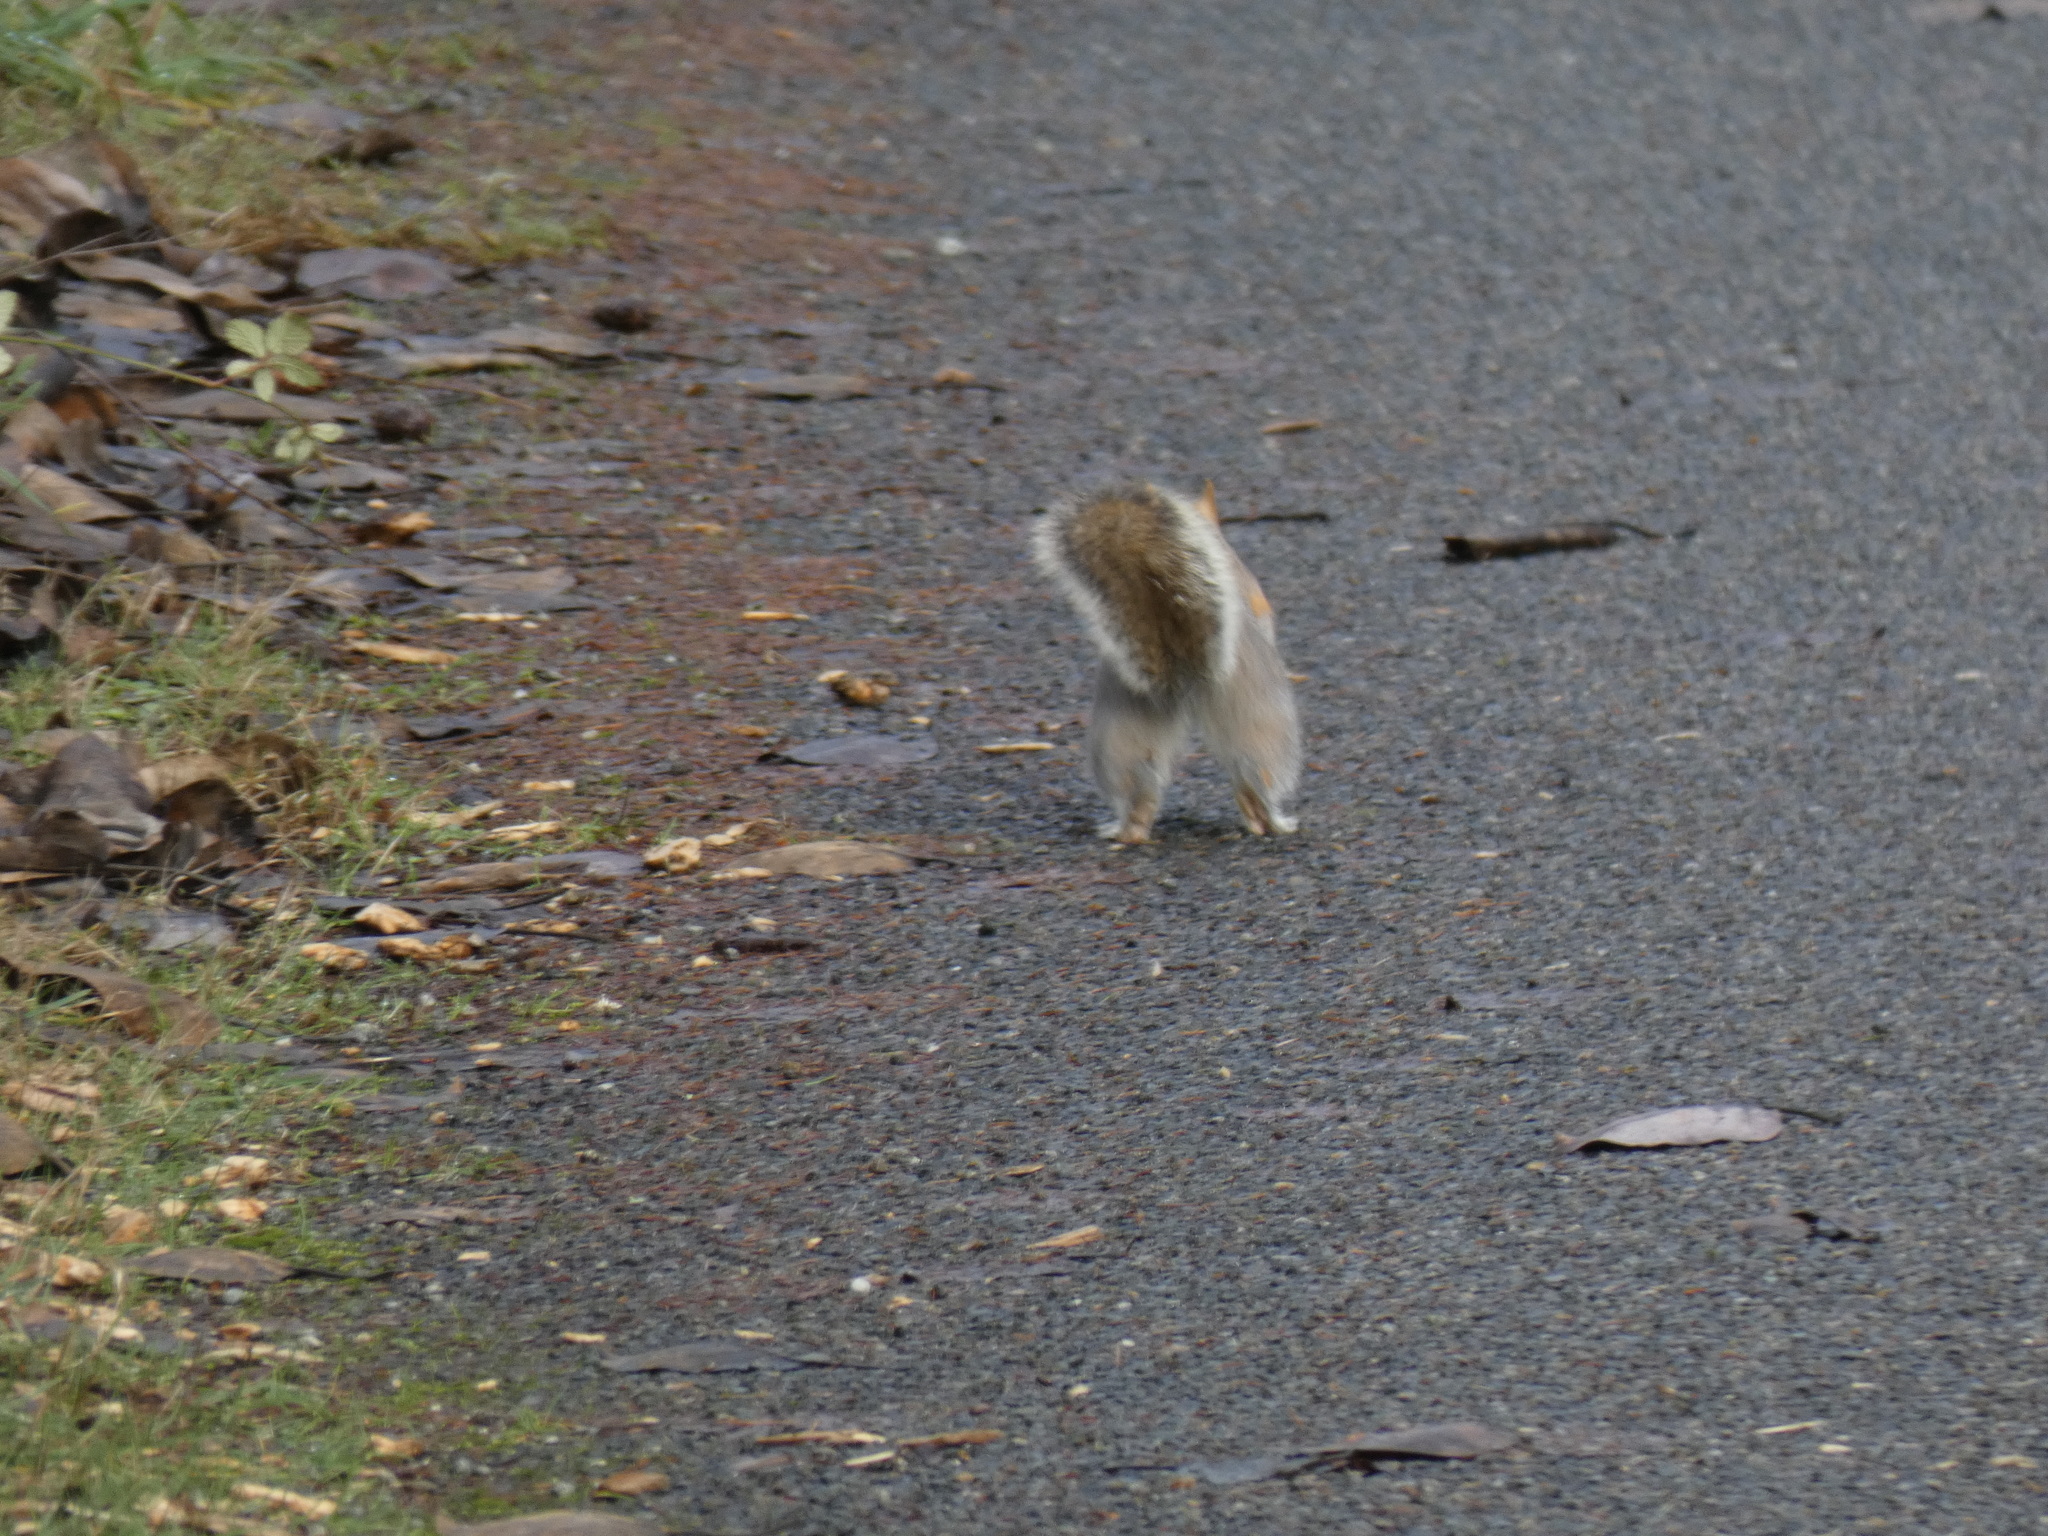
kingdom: Animalia
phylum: Chordata
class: Mammalia
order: Rodentia
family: Sciuridae
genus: Sciurus
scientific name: Sciurus carolinensis
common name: Eastern gray squirrel
